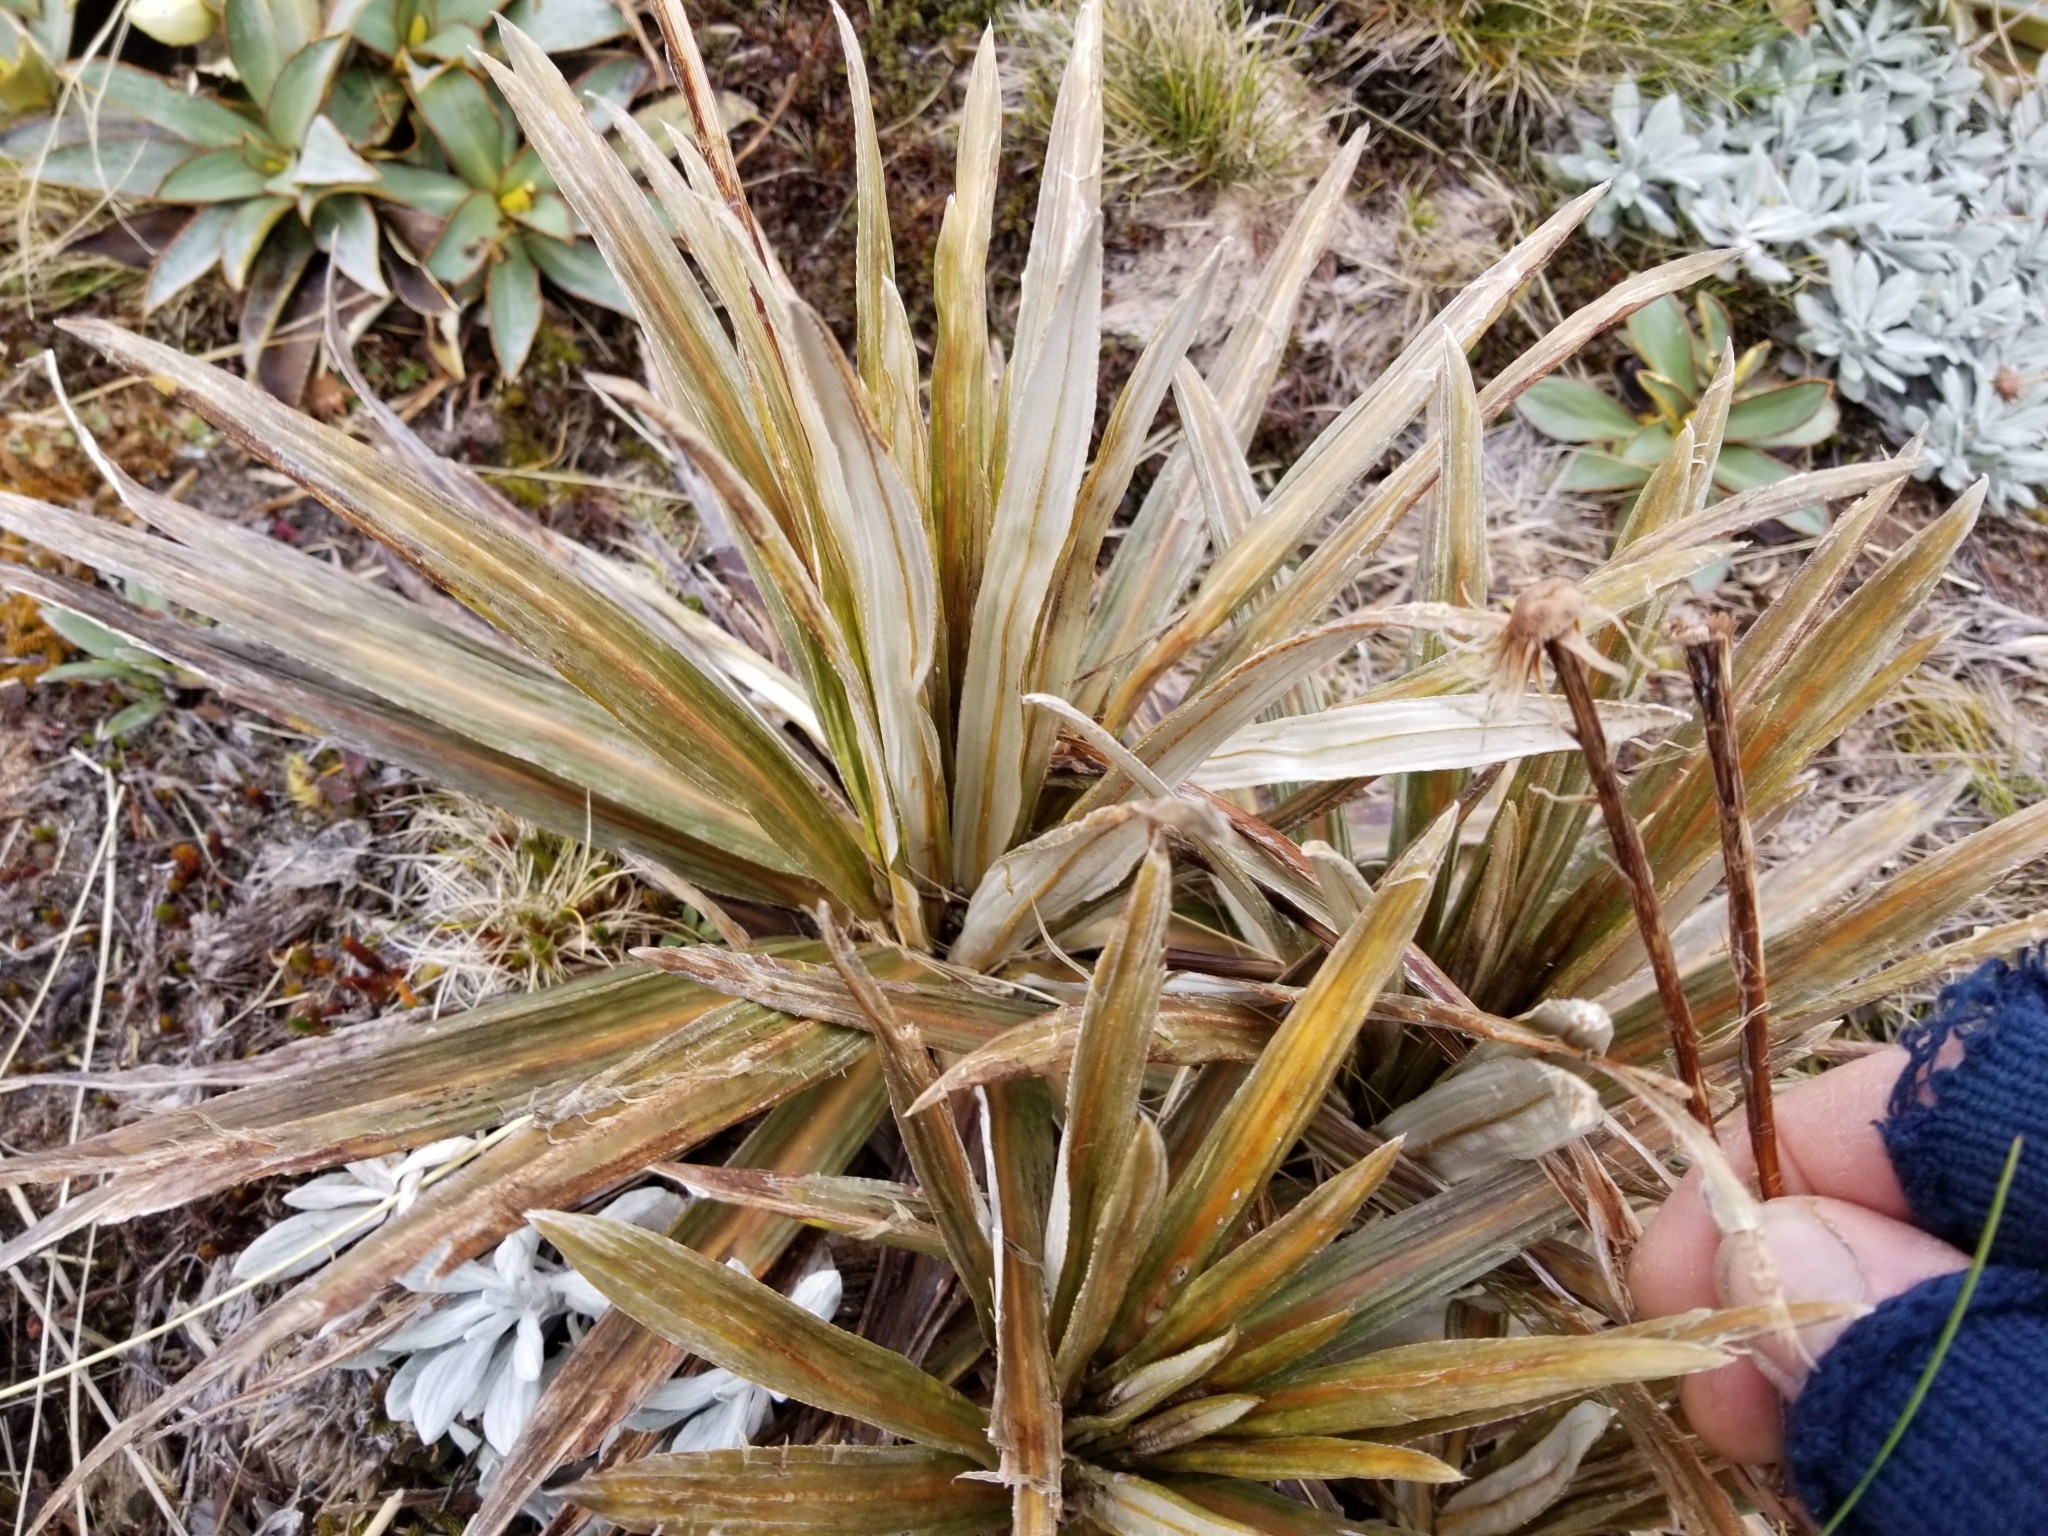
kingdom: Plantae
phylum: Tracheophyta
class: Magnoliopsida
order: Asterales
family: Asteraceae
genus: Celmisia
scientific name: Celmisia armstrongii
